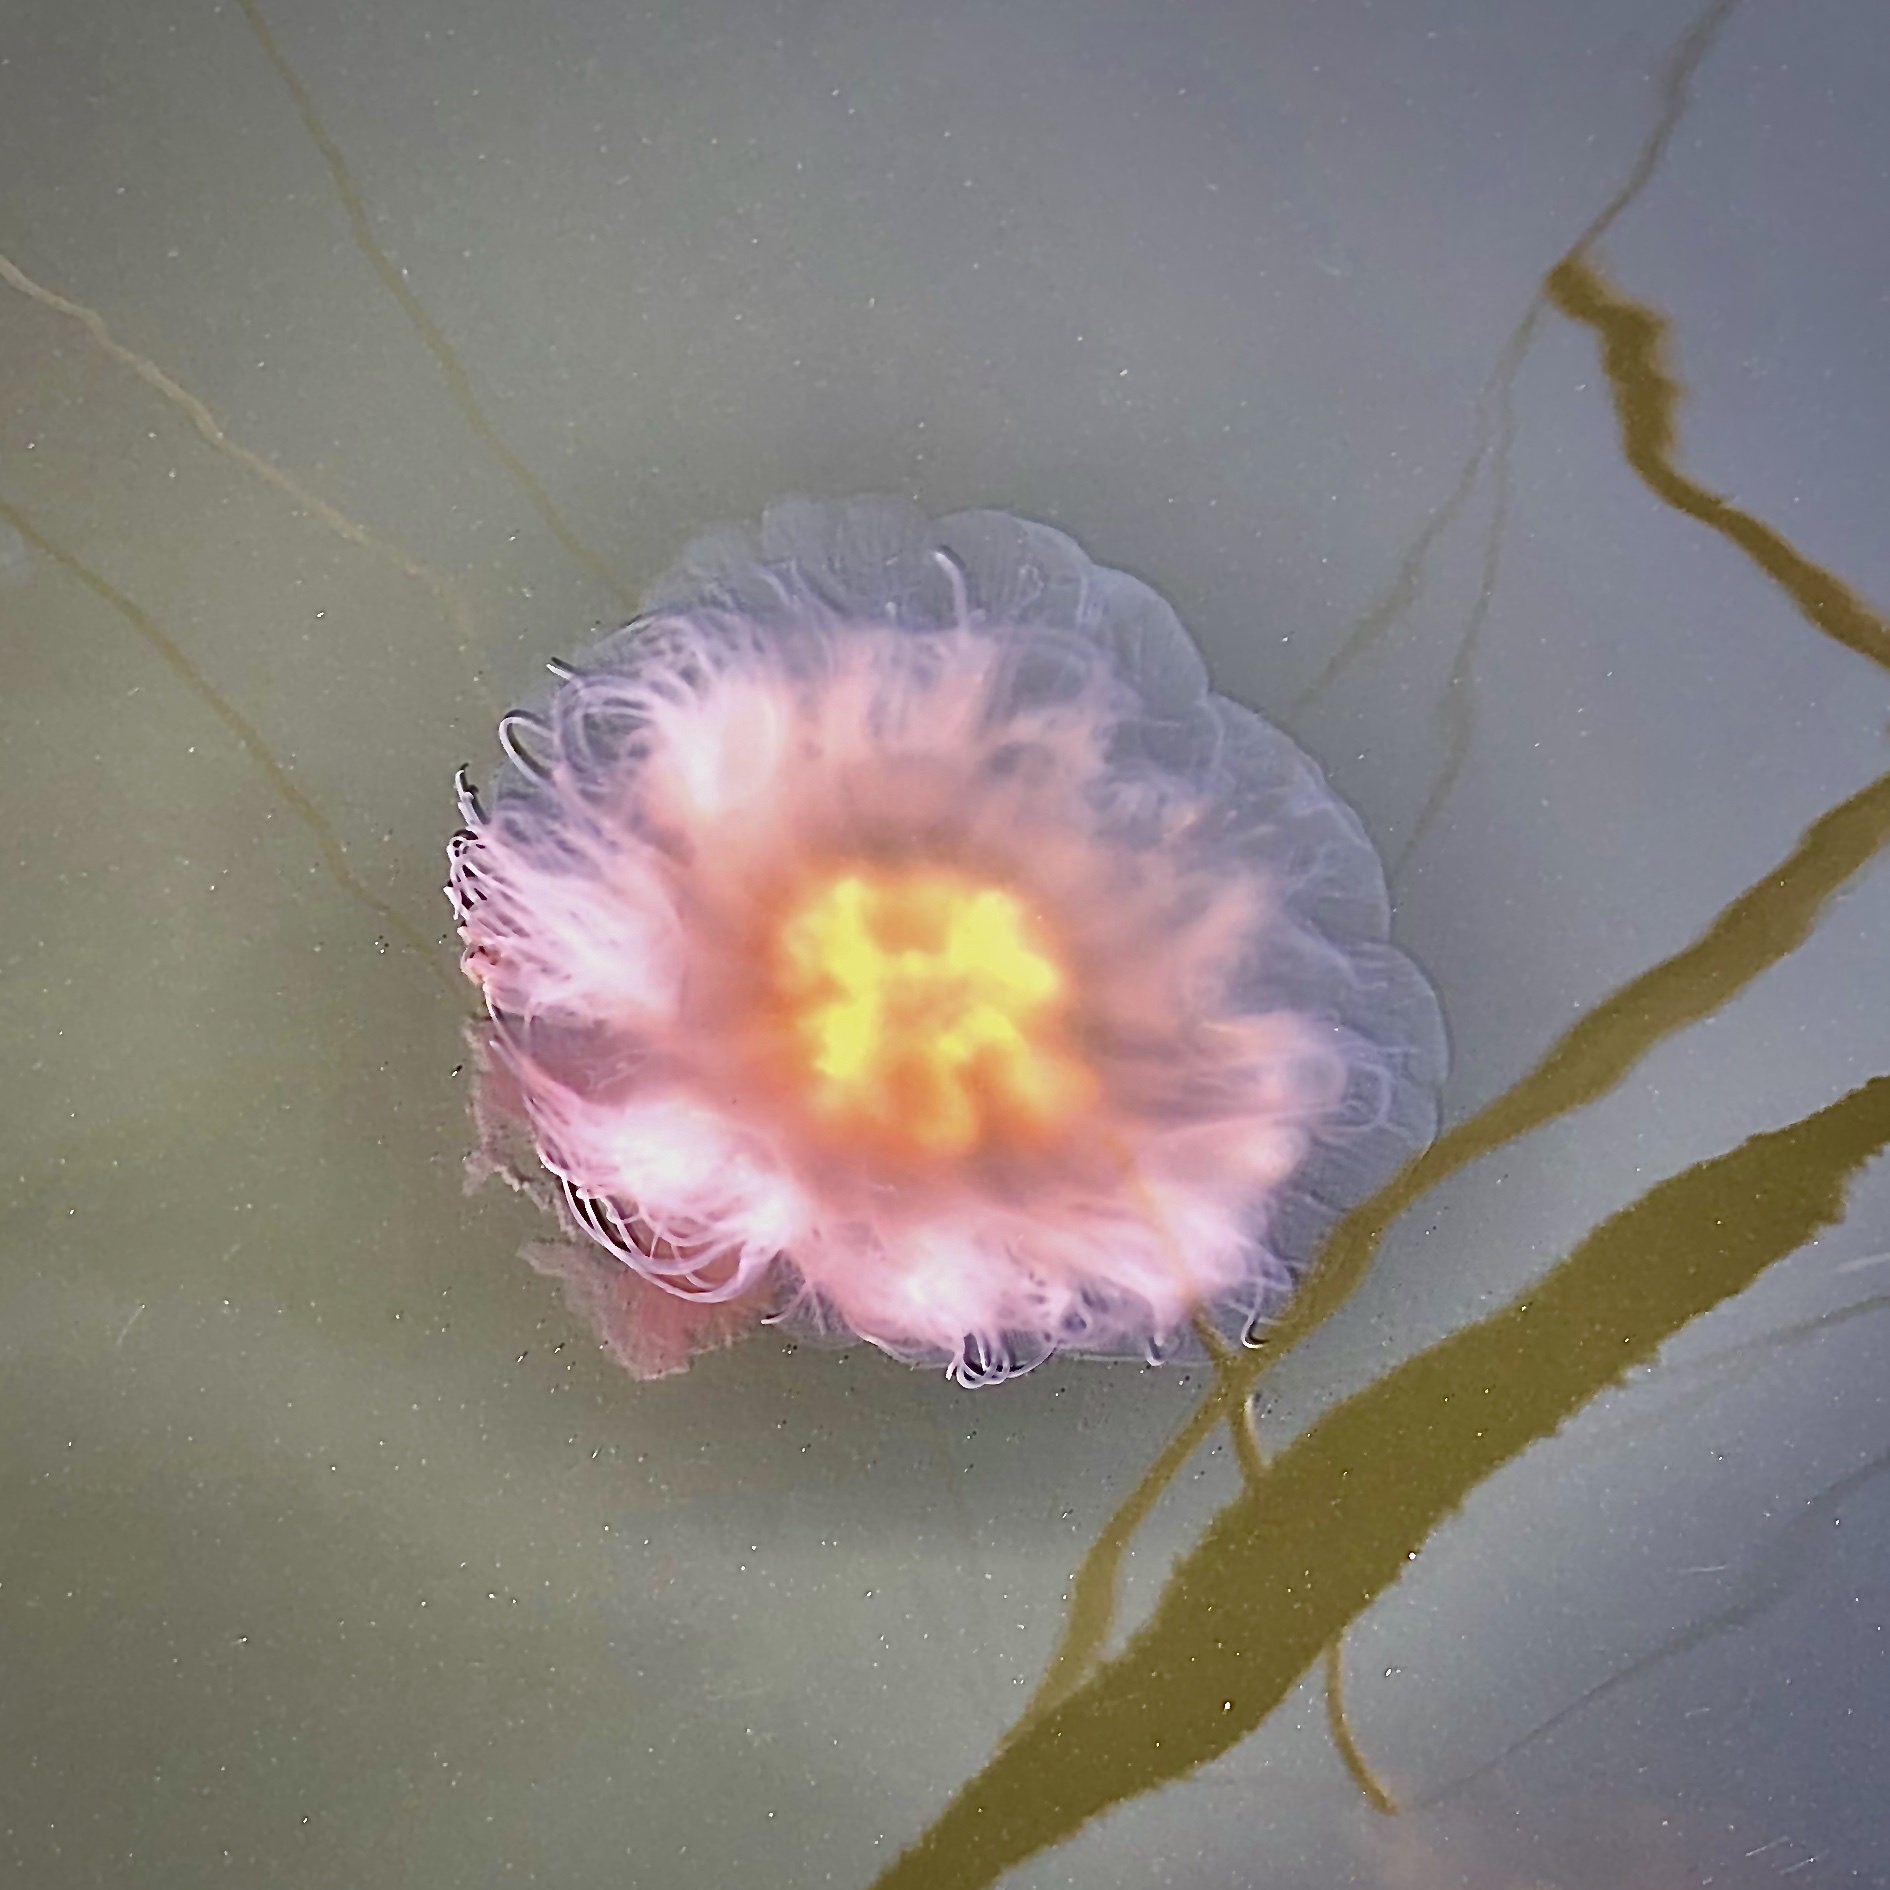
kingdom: Animalia
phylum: Cnidaria
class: Scyphozoa
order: Semaeostomeae
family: Cyaneidae
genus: Cyanea
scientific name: Cyanea versicolor
